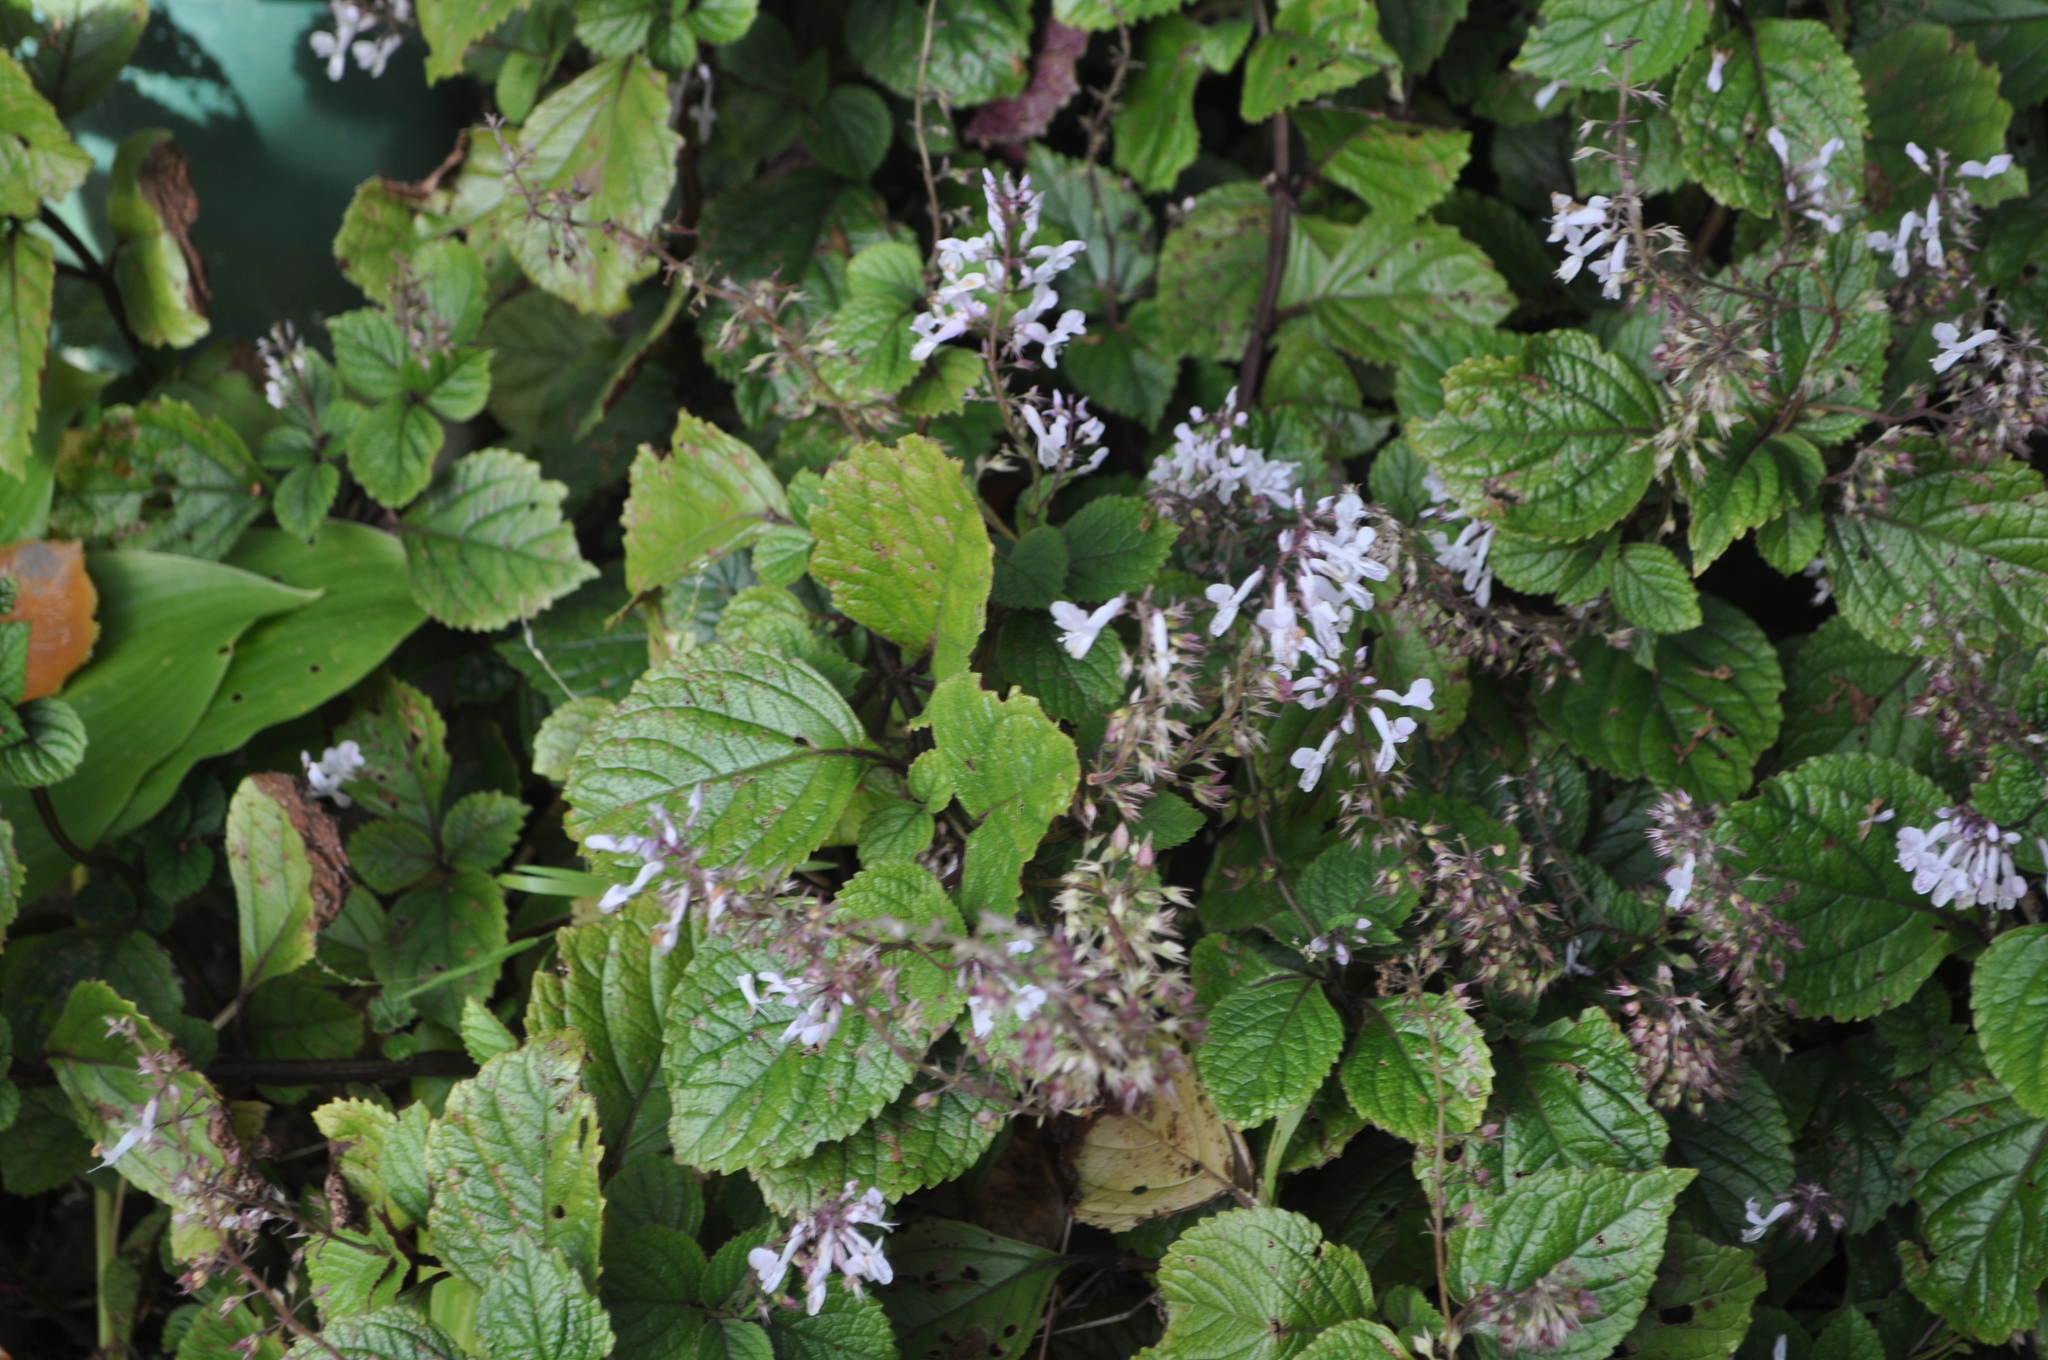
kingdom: Plantae
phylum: Tracheophyta
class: Magnoliopsida
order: Lamiales
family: Lamiaceae
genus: Plectranthus
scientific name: Plectranthus ciliatus
